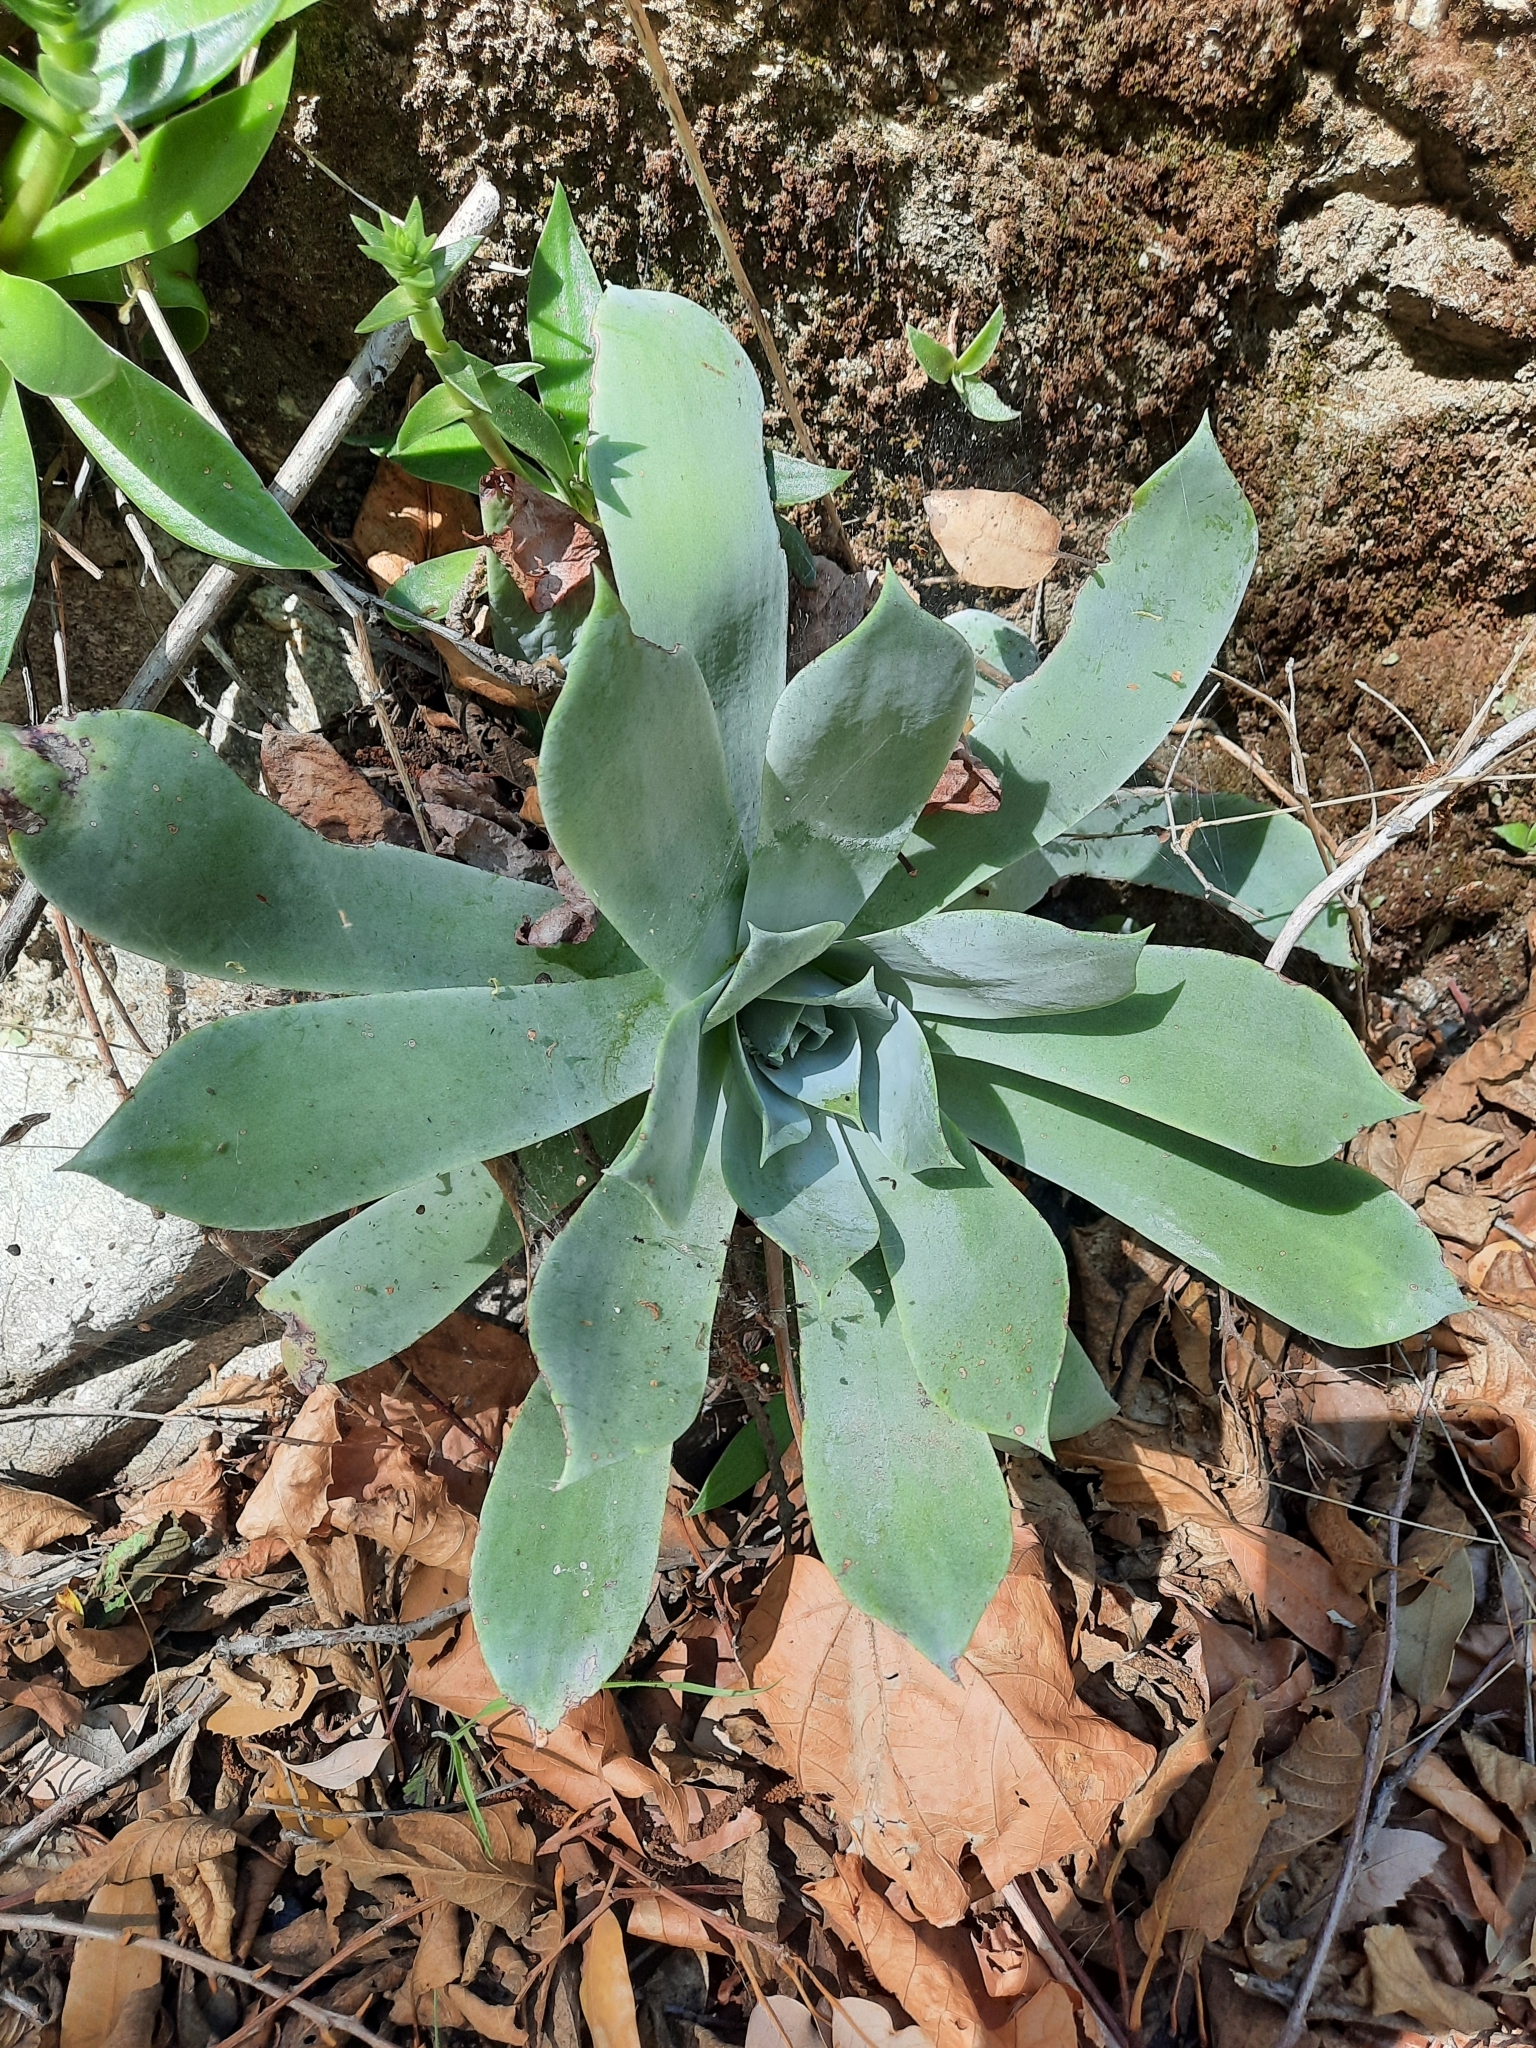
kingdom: Plantae
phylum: Tracheophyta
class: Magnoliopsida
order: Saxifragales
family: Crassulaceae
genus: Dudleya
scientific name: Dudleya pulverulenta
